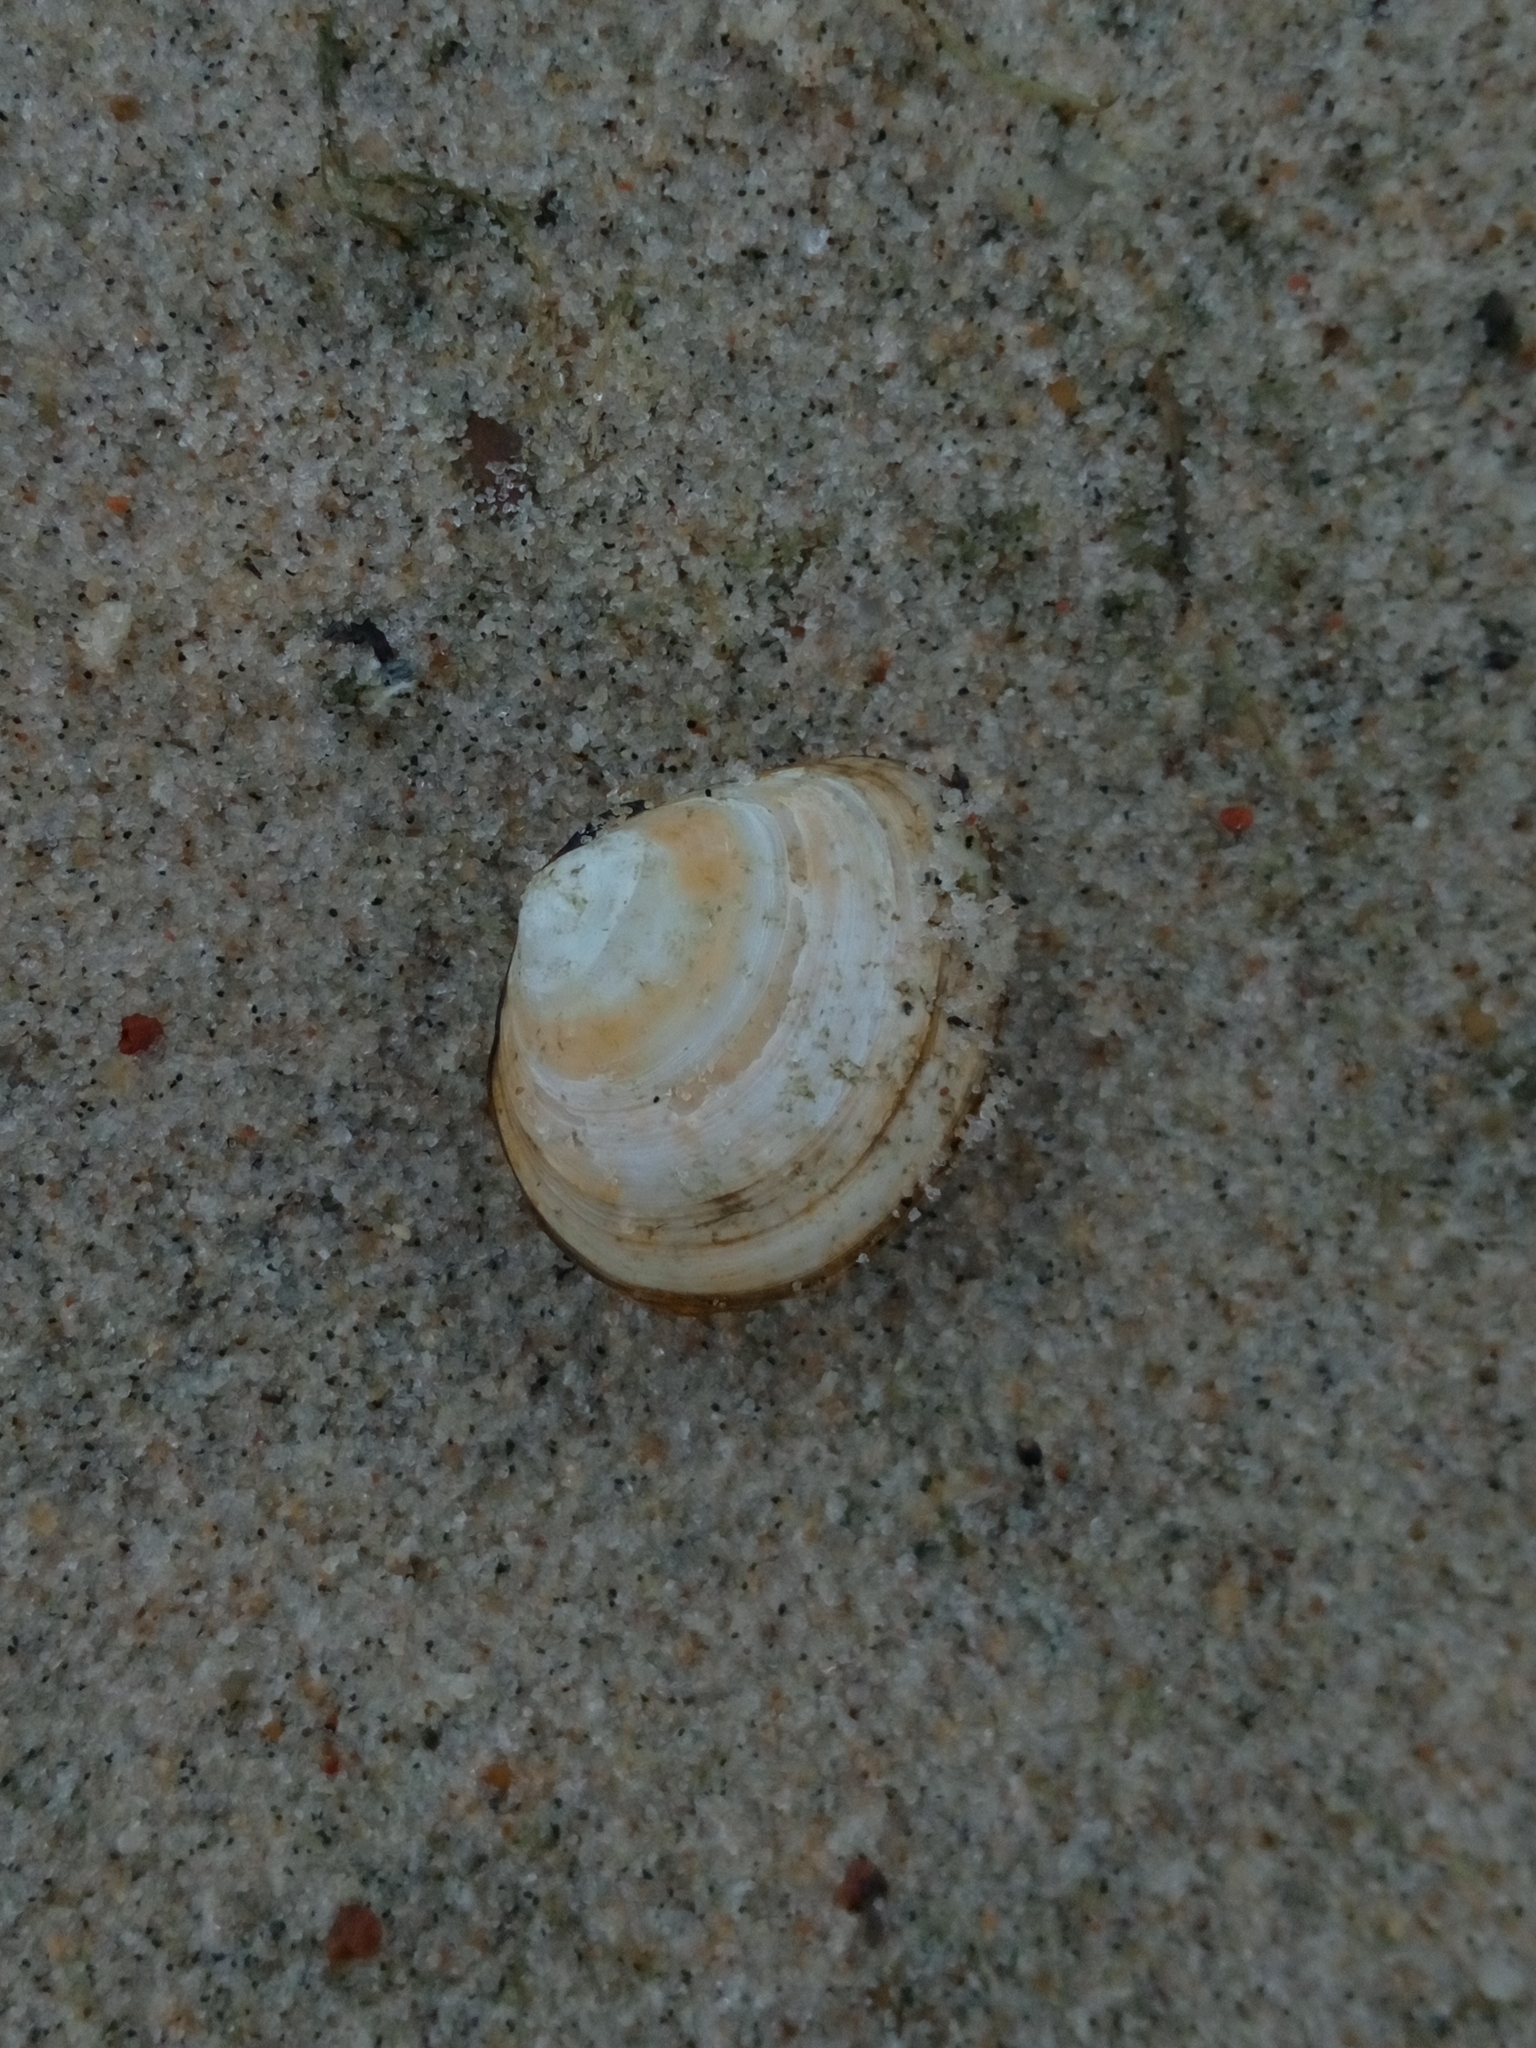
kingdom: Animalia
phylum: Mollusca
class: Bivalvia
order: Cardiida
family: Tellinidae
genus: Macoma
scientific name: Macoma balthica
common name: Baltic tellin
